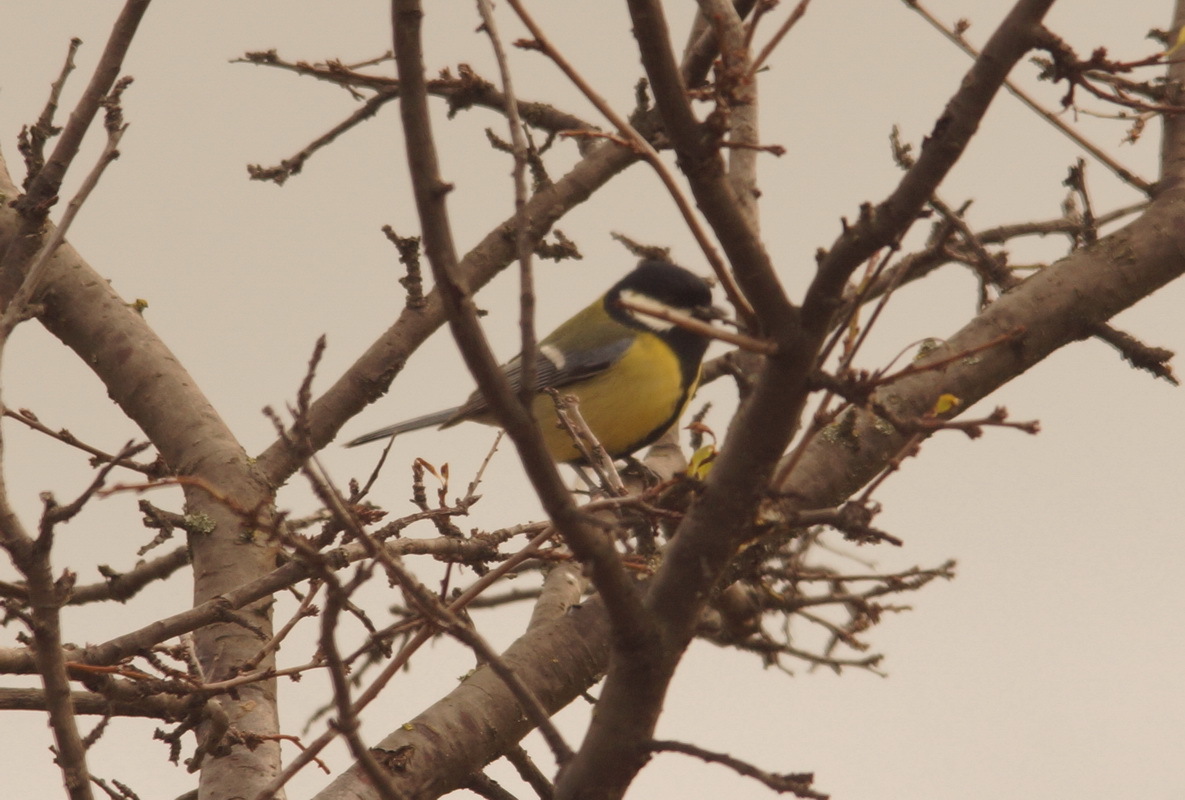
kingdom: Animalia
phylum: Chordata
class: Aves
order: Passeriformes
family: Paridae
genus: Parus
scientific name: Parus major
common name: Great tit
